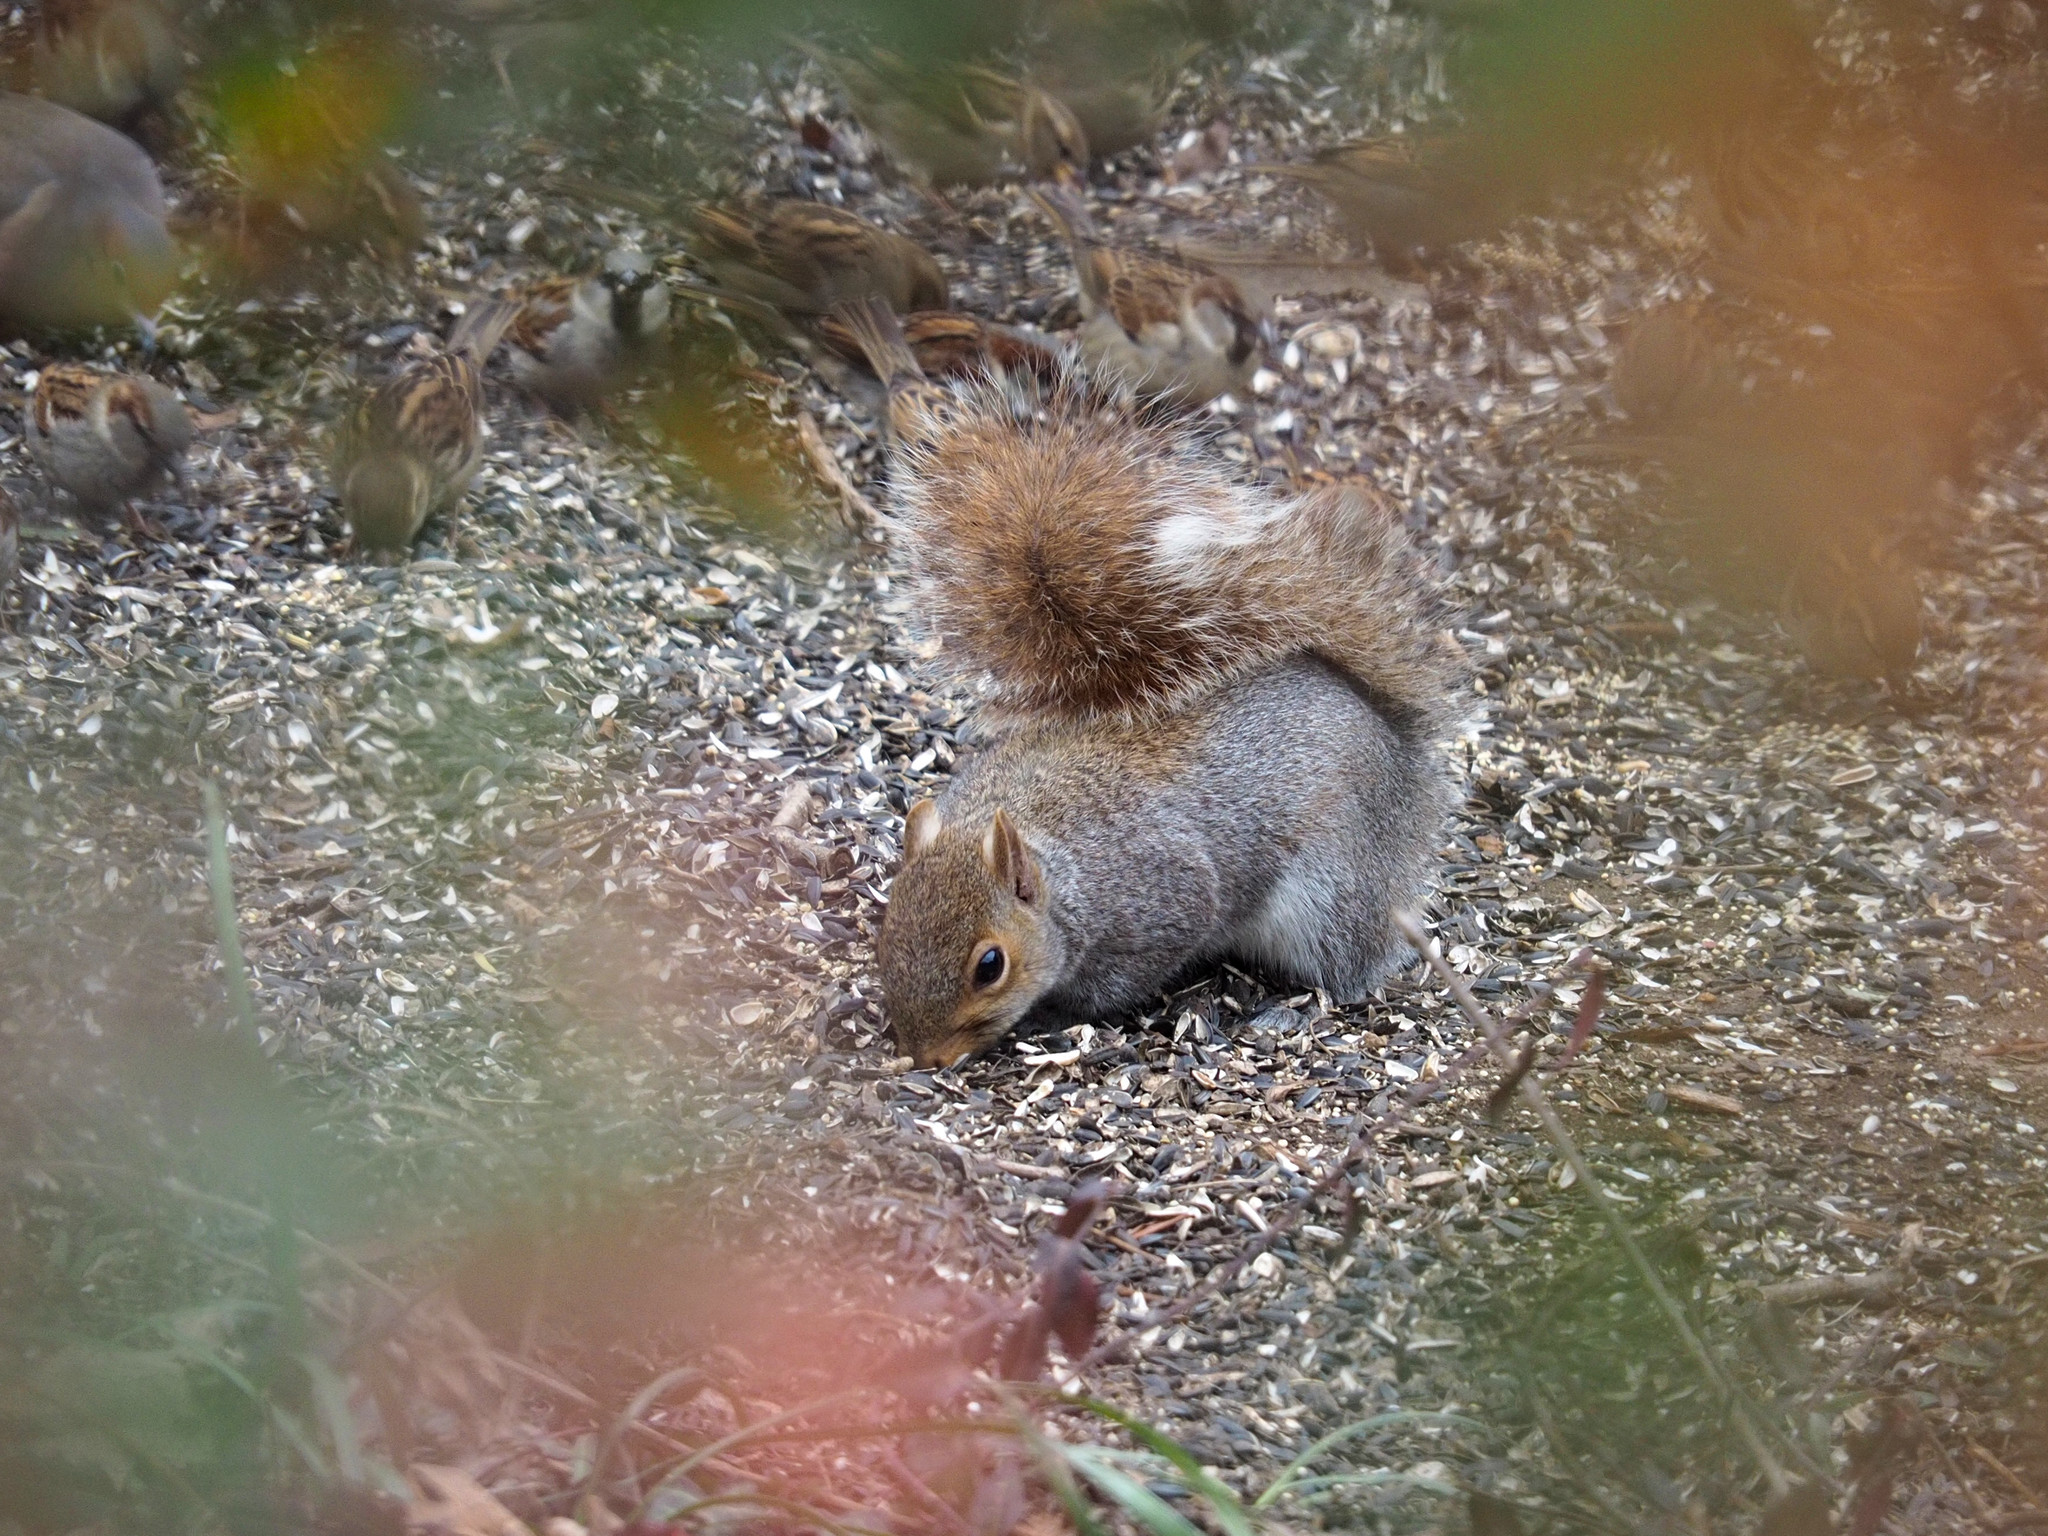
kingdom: Animalia
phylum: Chordata
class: Mammalia
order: Rodentia
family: Sciuridae
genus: Sciurus
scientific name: Sciurus carolinensis
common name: Eastern gray squirrel
